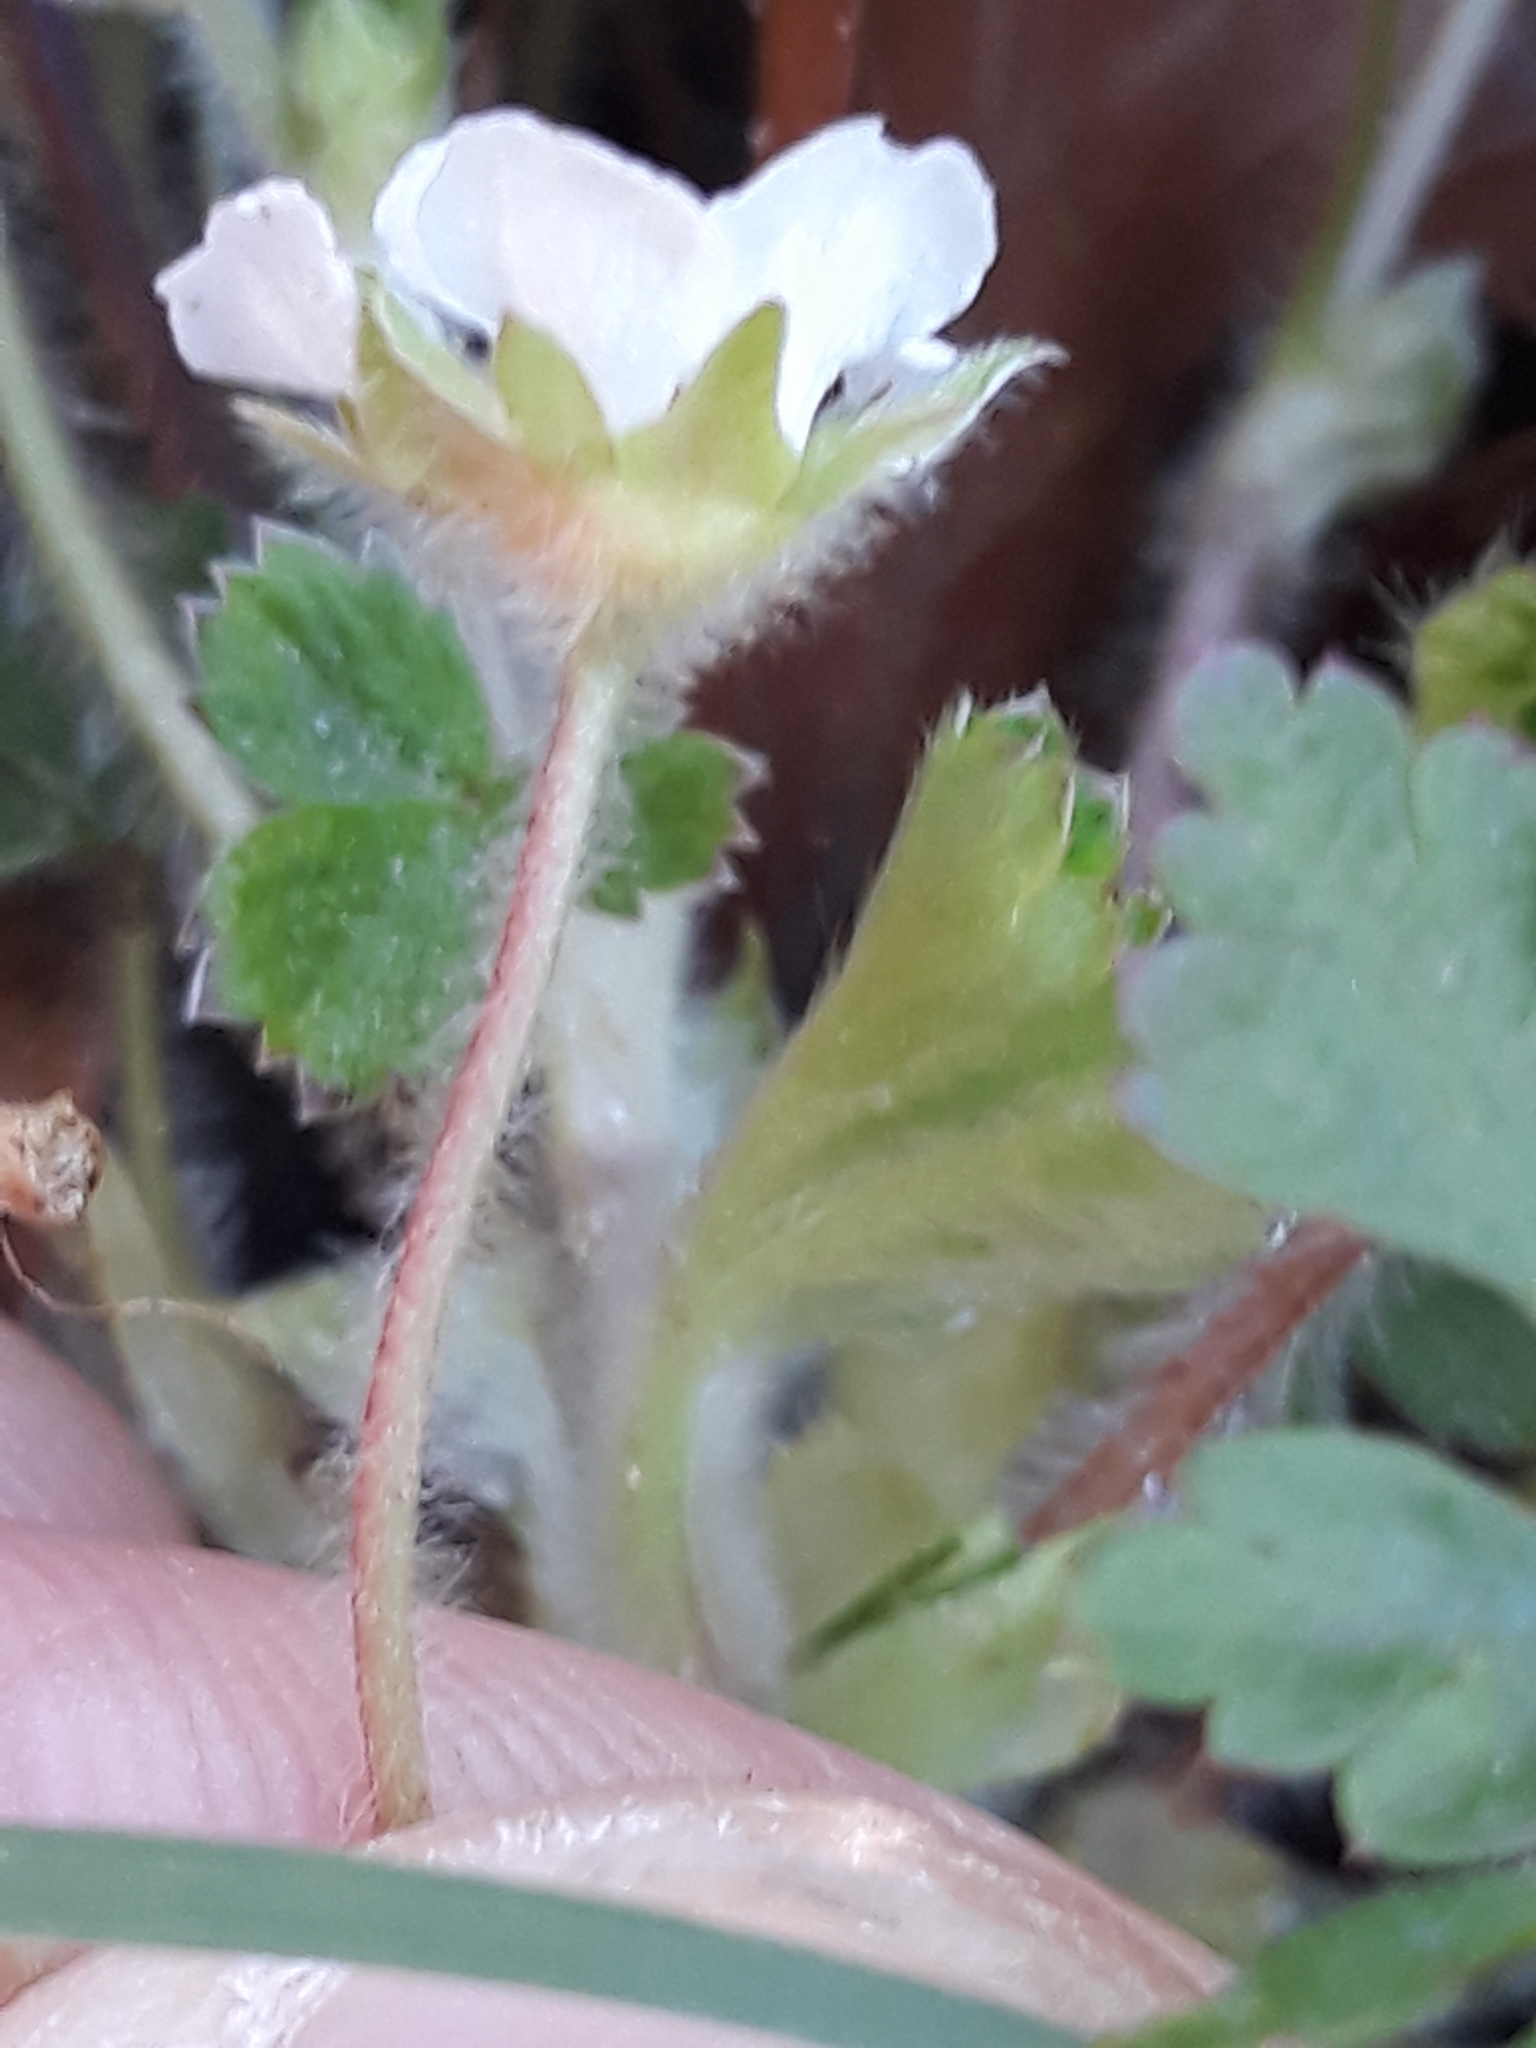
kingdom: Plantae
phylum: Tracheophyta
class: Magnoliopsida
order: Rosales
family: Rosaceae
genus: Potentilla
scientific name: Potentilla sterilis
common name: Barren strawberry
